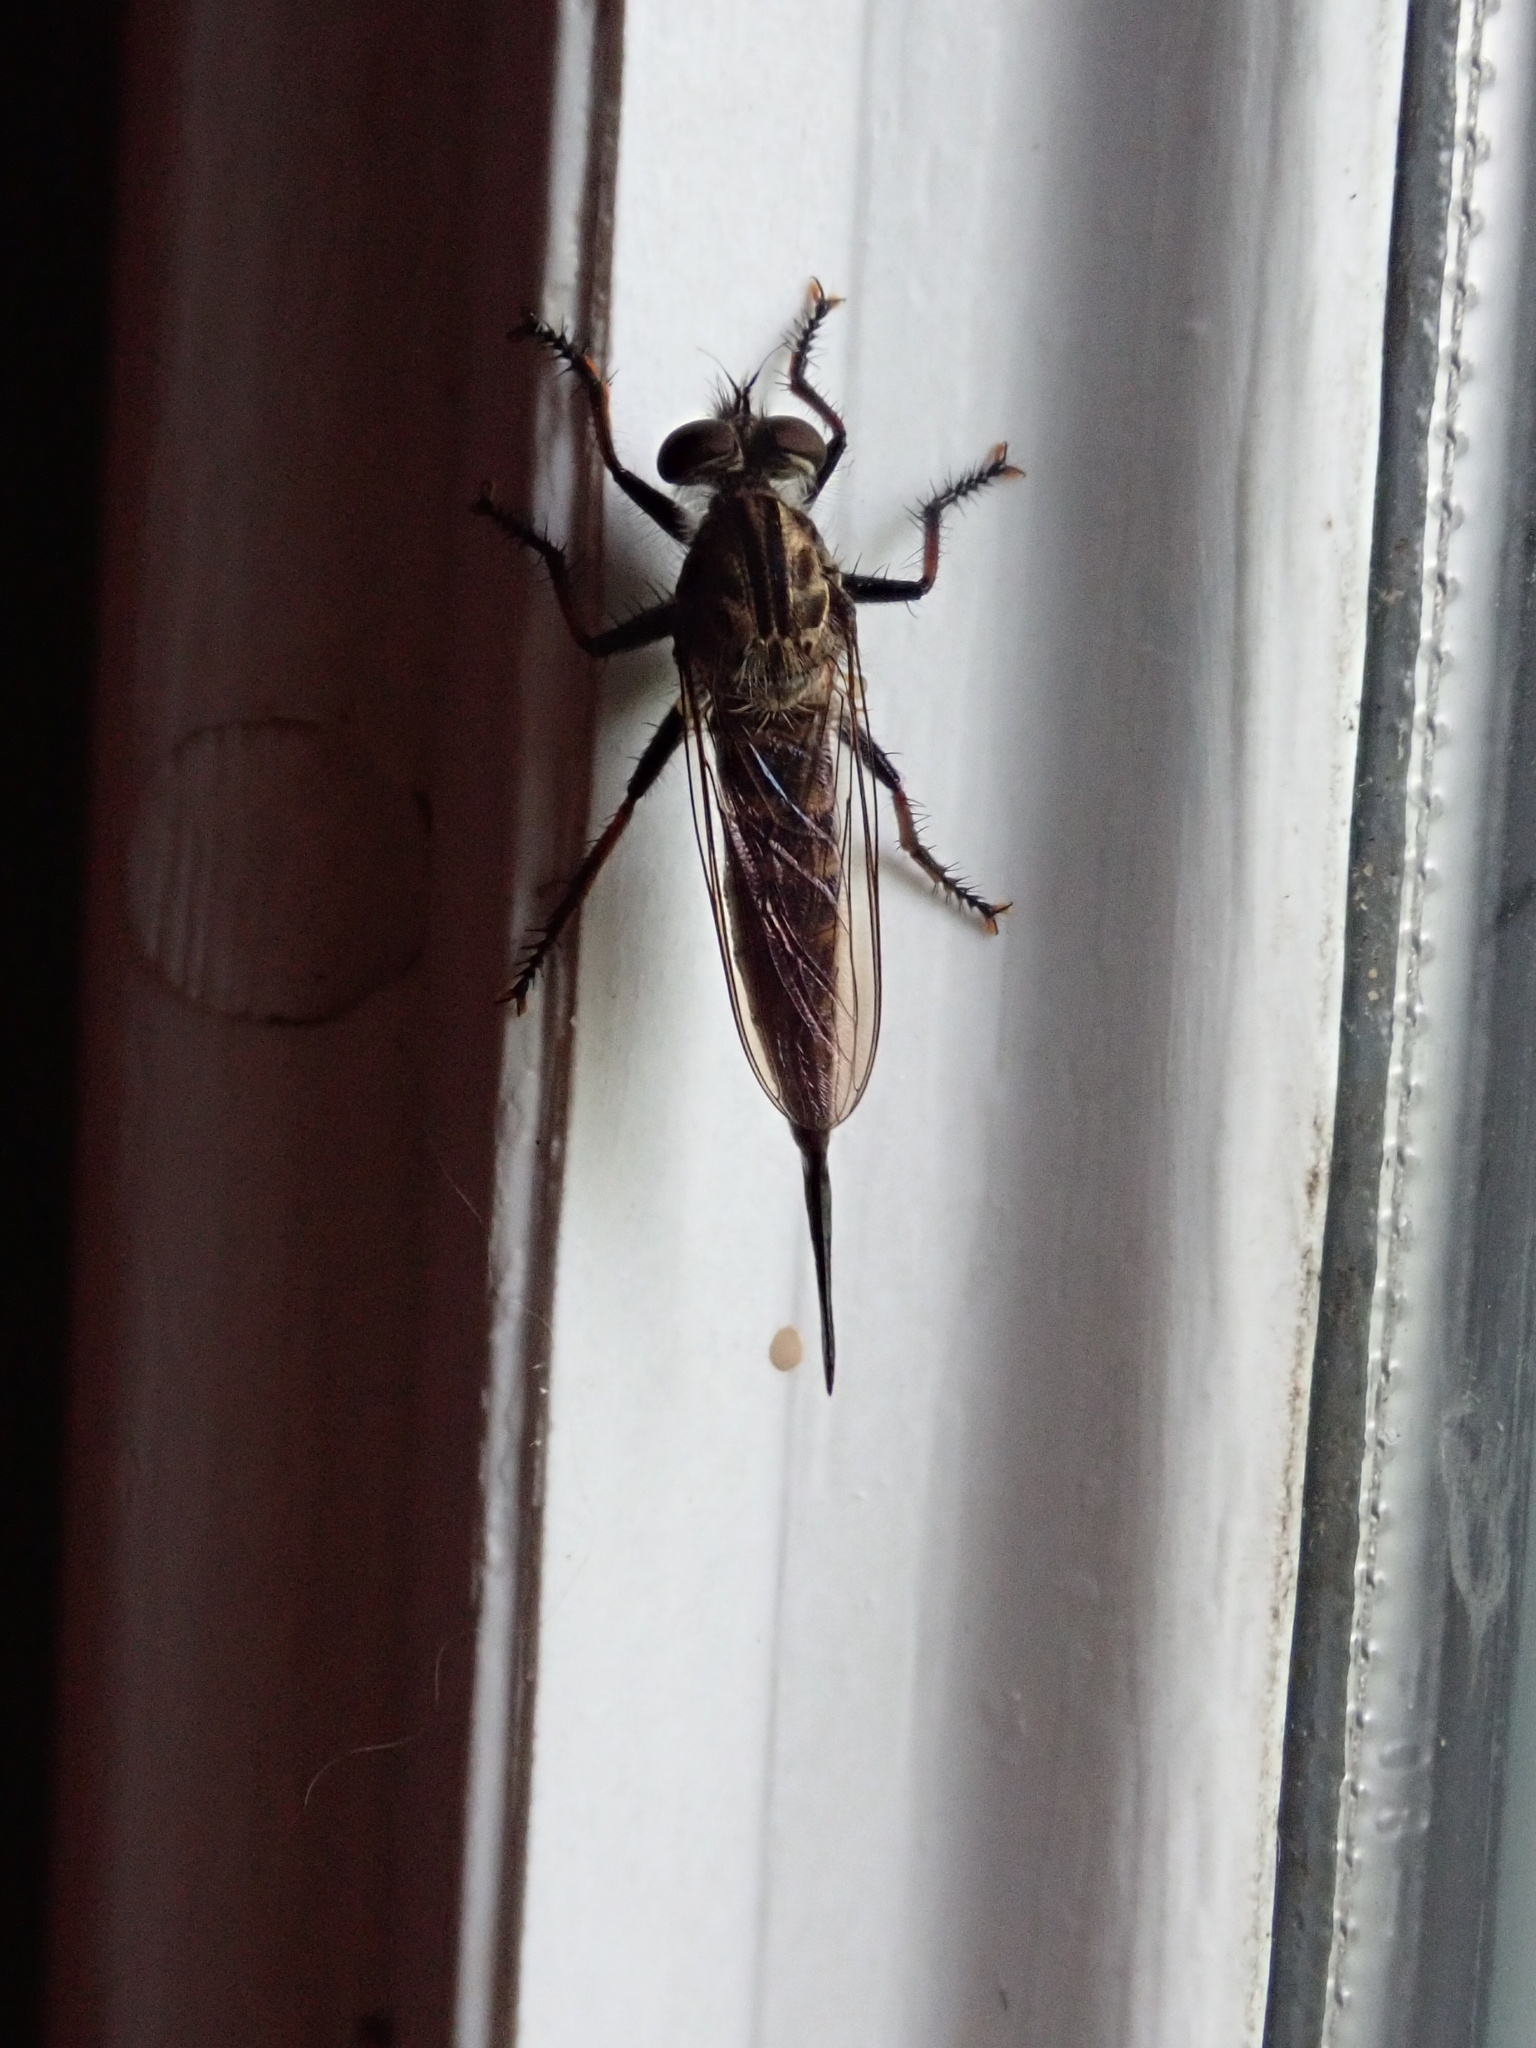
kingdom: Animalia
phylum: Arthropoda
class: Insecta
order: Diptera
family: Asilidae
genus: Efferia
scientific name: Efferia aestuans
